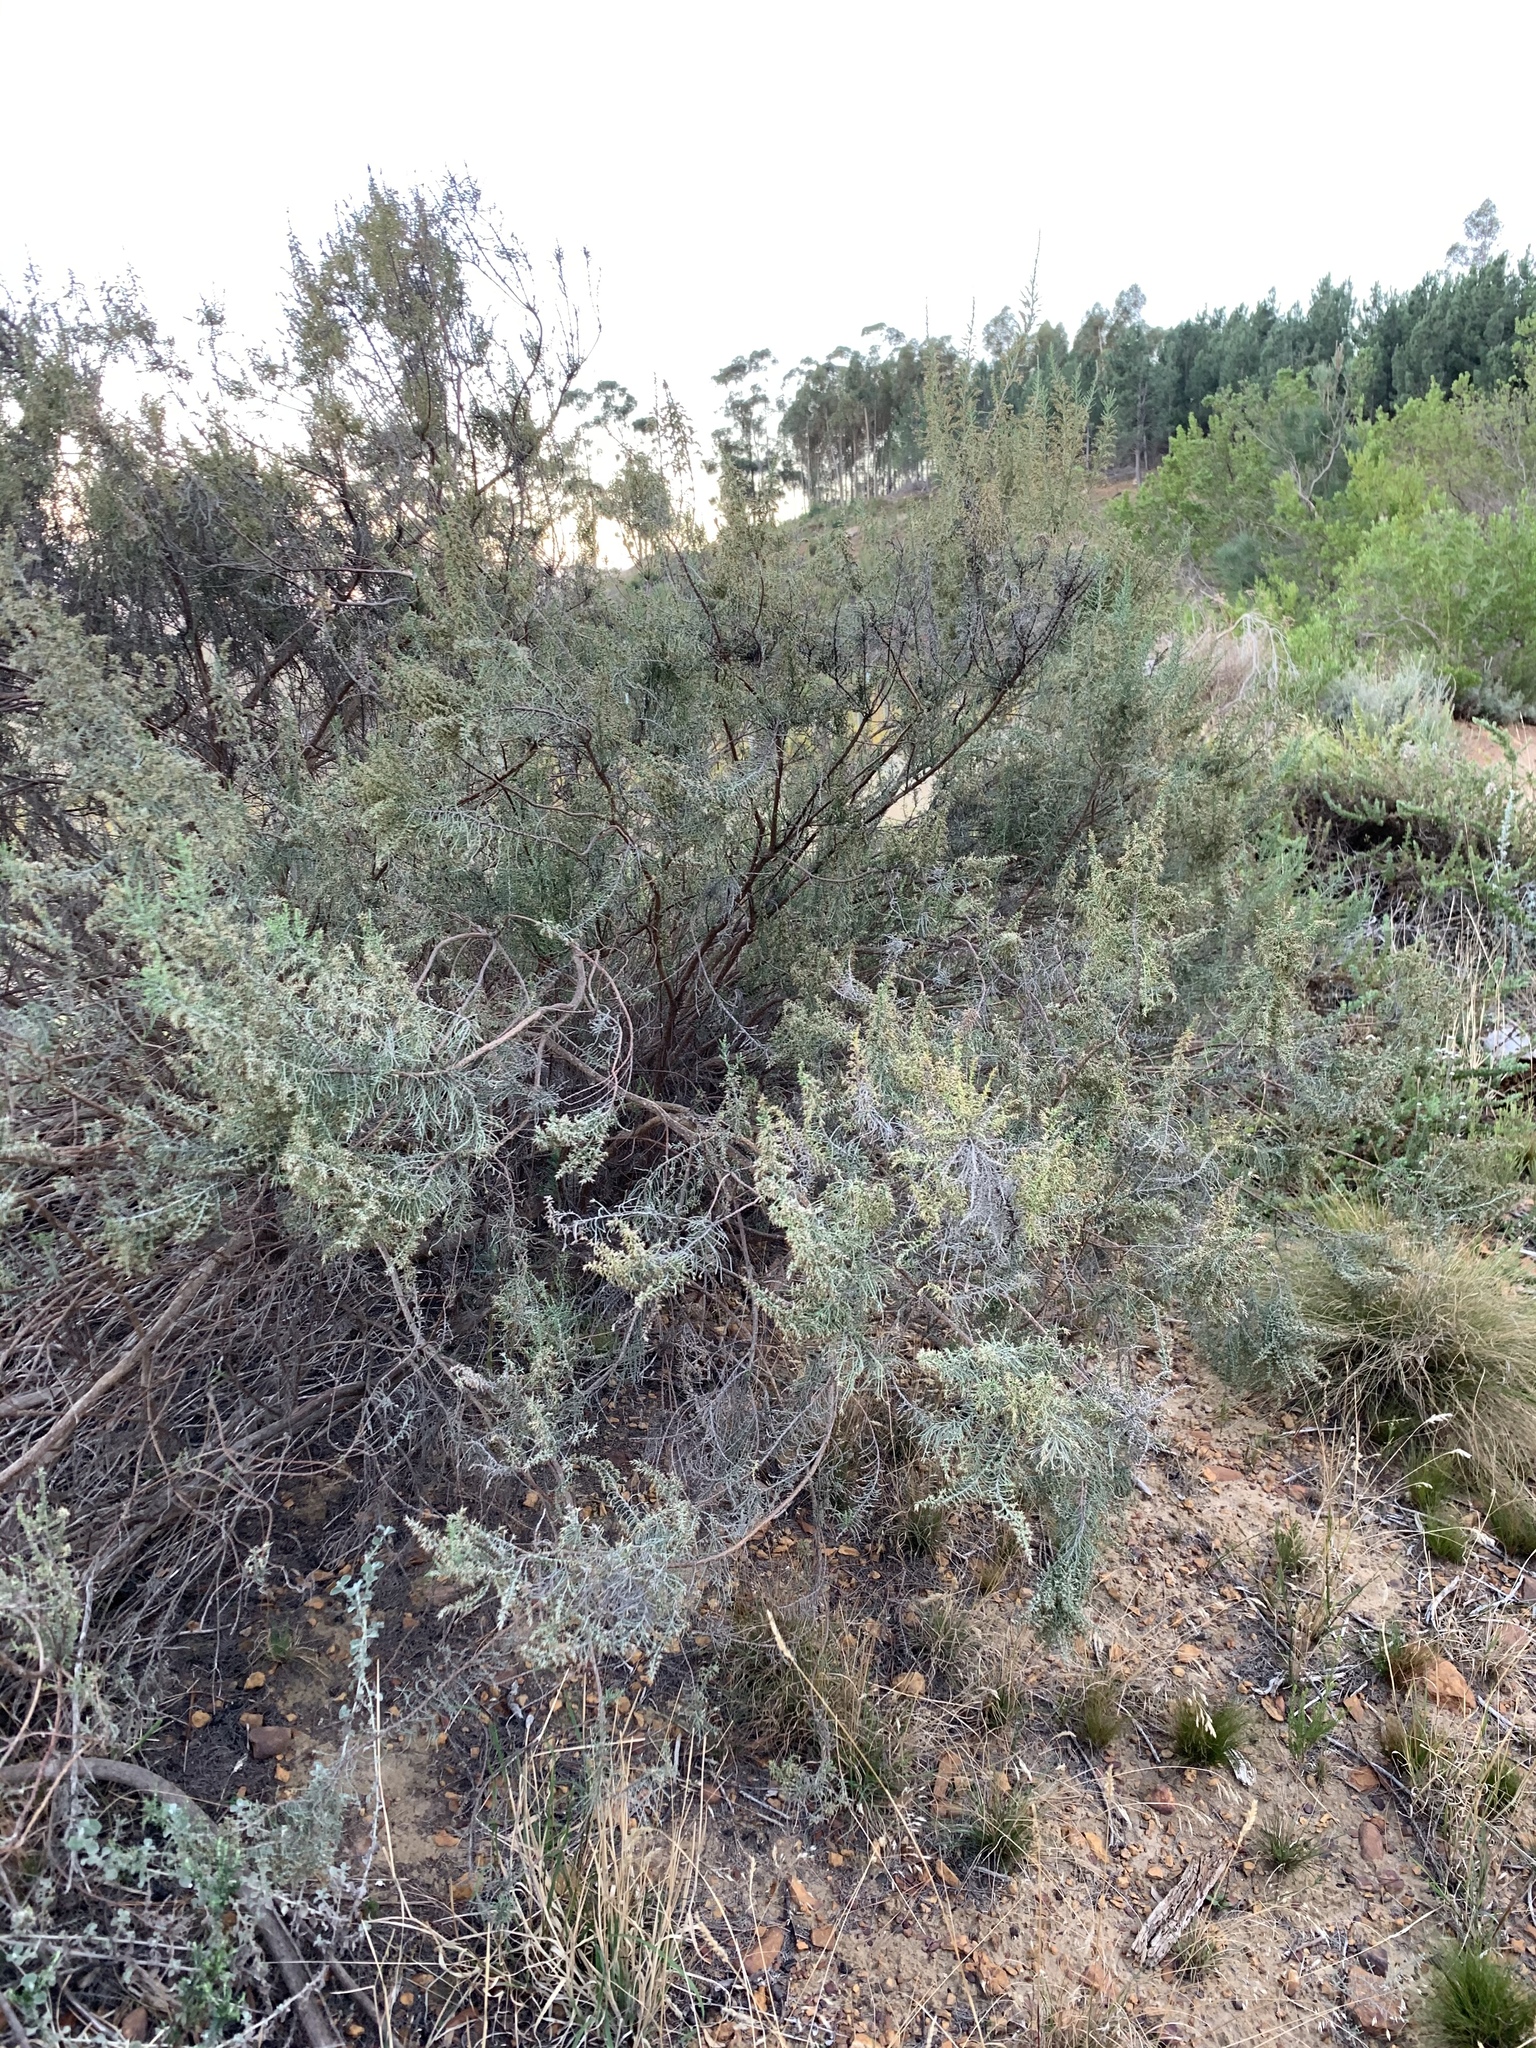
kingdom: Plantae
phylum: Tracheophyta
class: Magnoliopsida
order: Asterales
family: Asteraceae
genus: Dicerothamnus
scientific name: Dicerothamnus rhinocerotis
